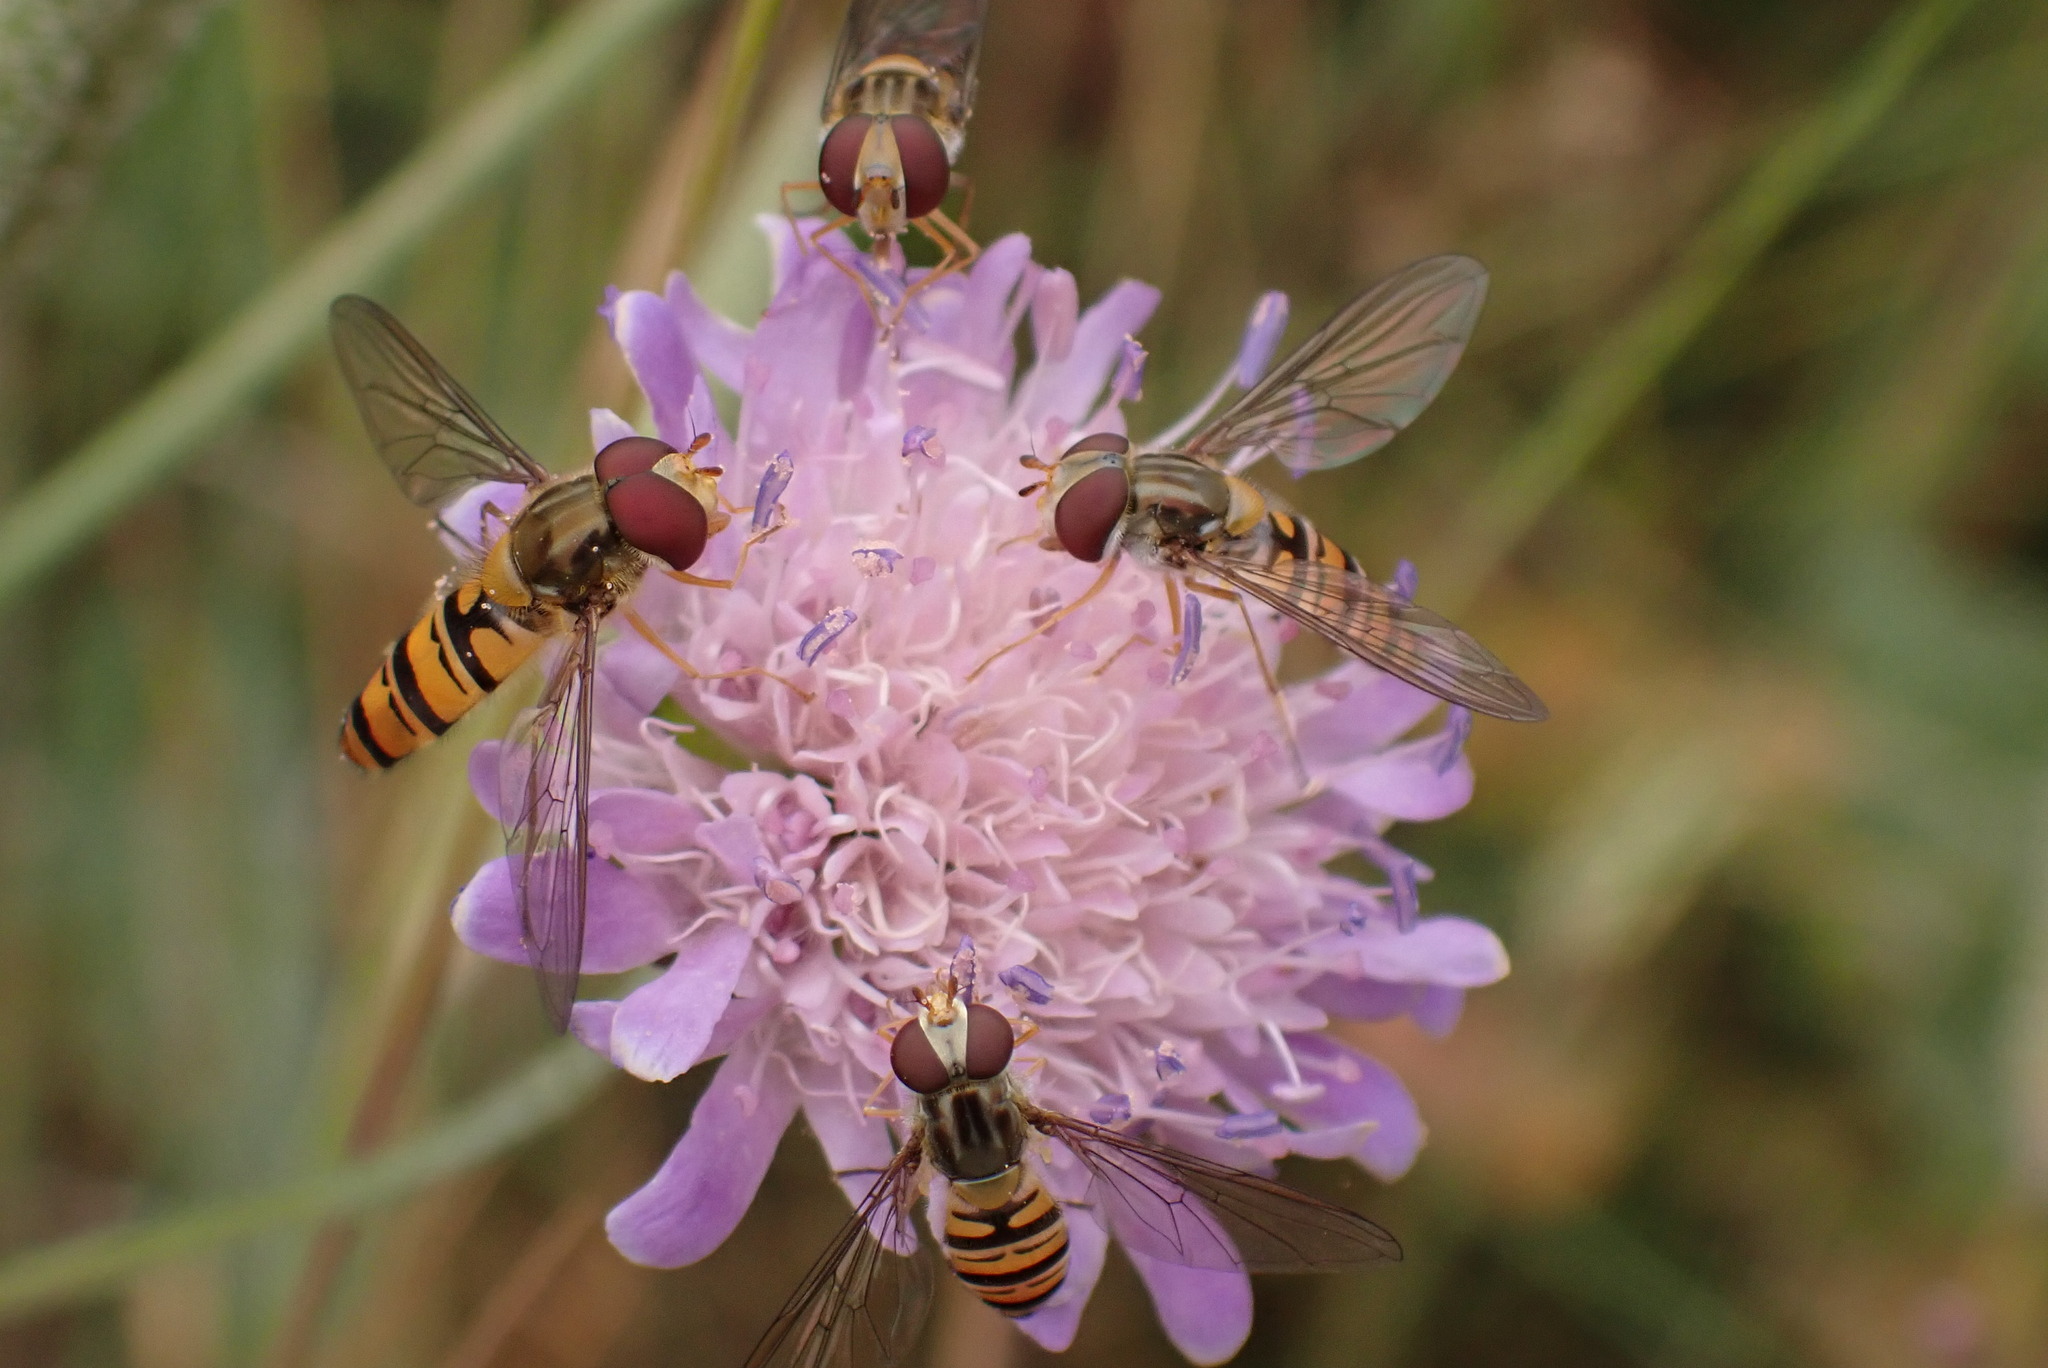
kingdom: Animalia
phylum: Arthropoda
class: Insecta
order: Diptera
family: Syrphidae
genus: Episyrphus
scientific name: Episyrphus balteatus
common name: Marmalade hoverfly
